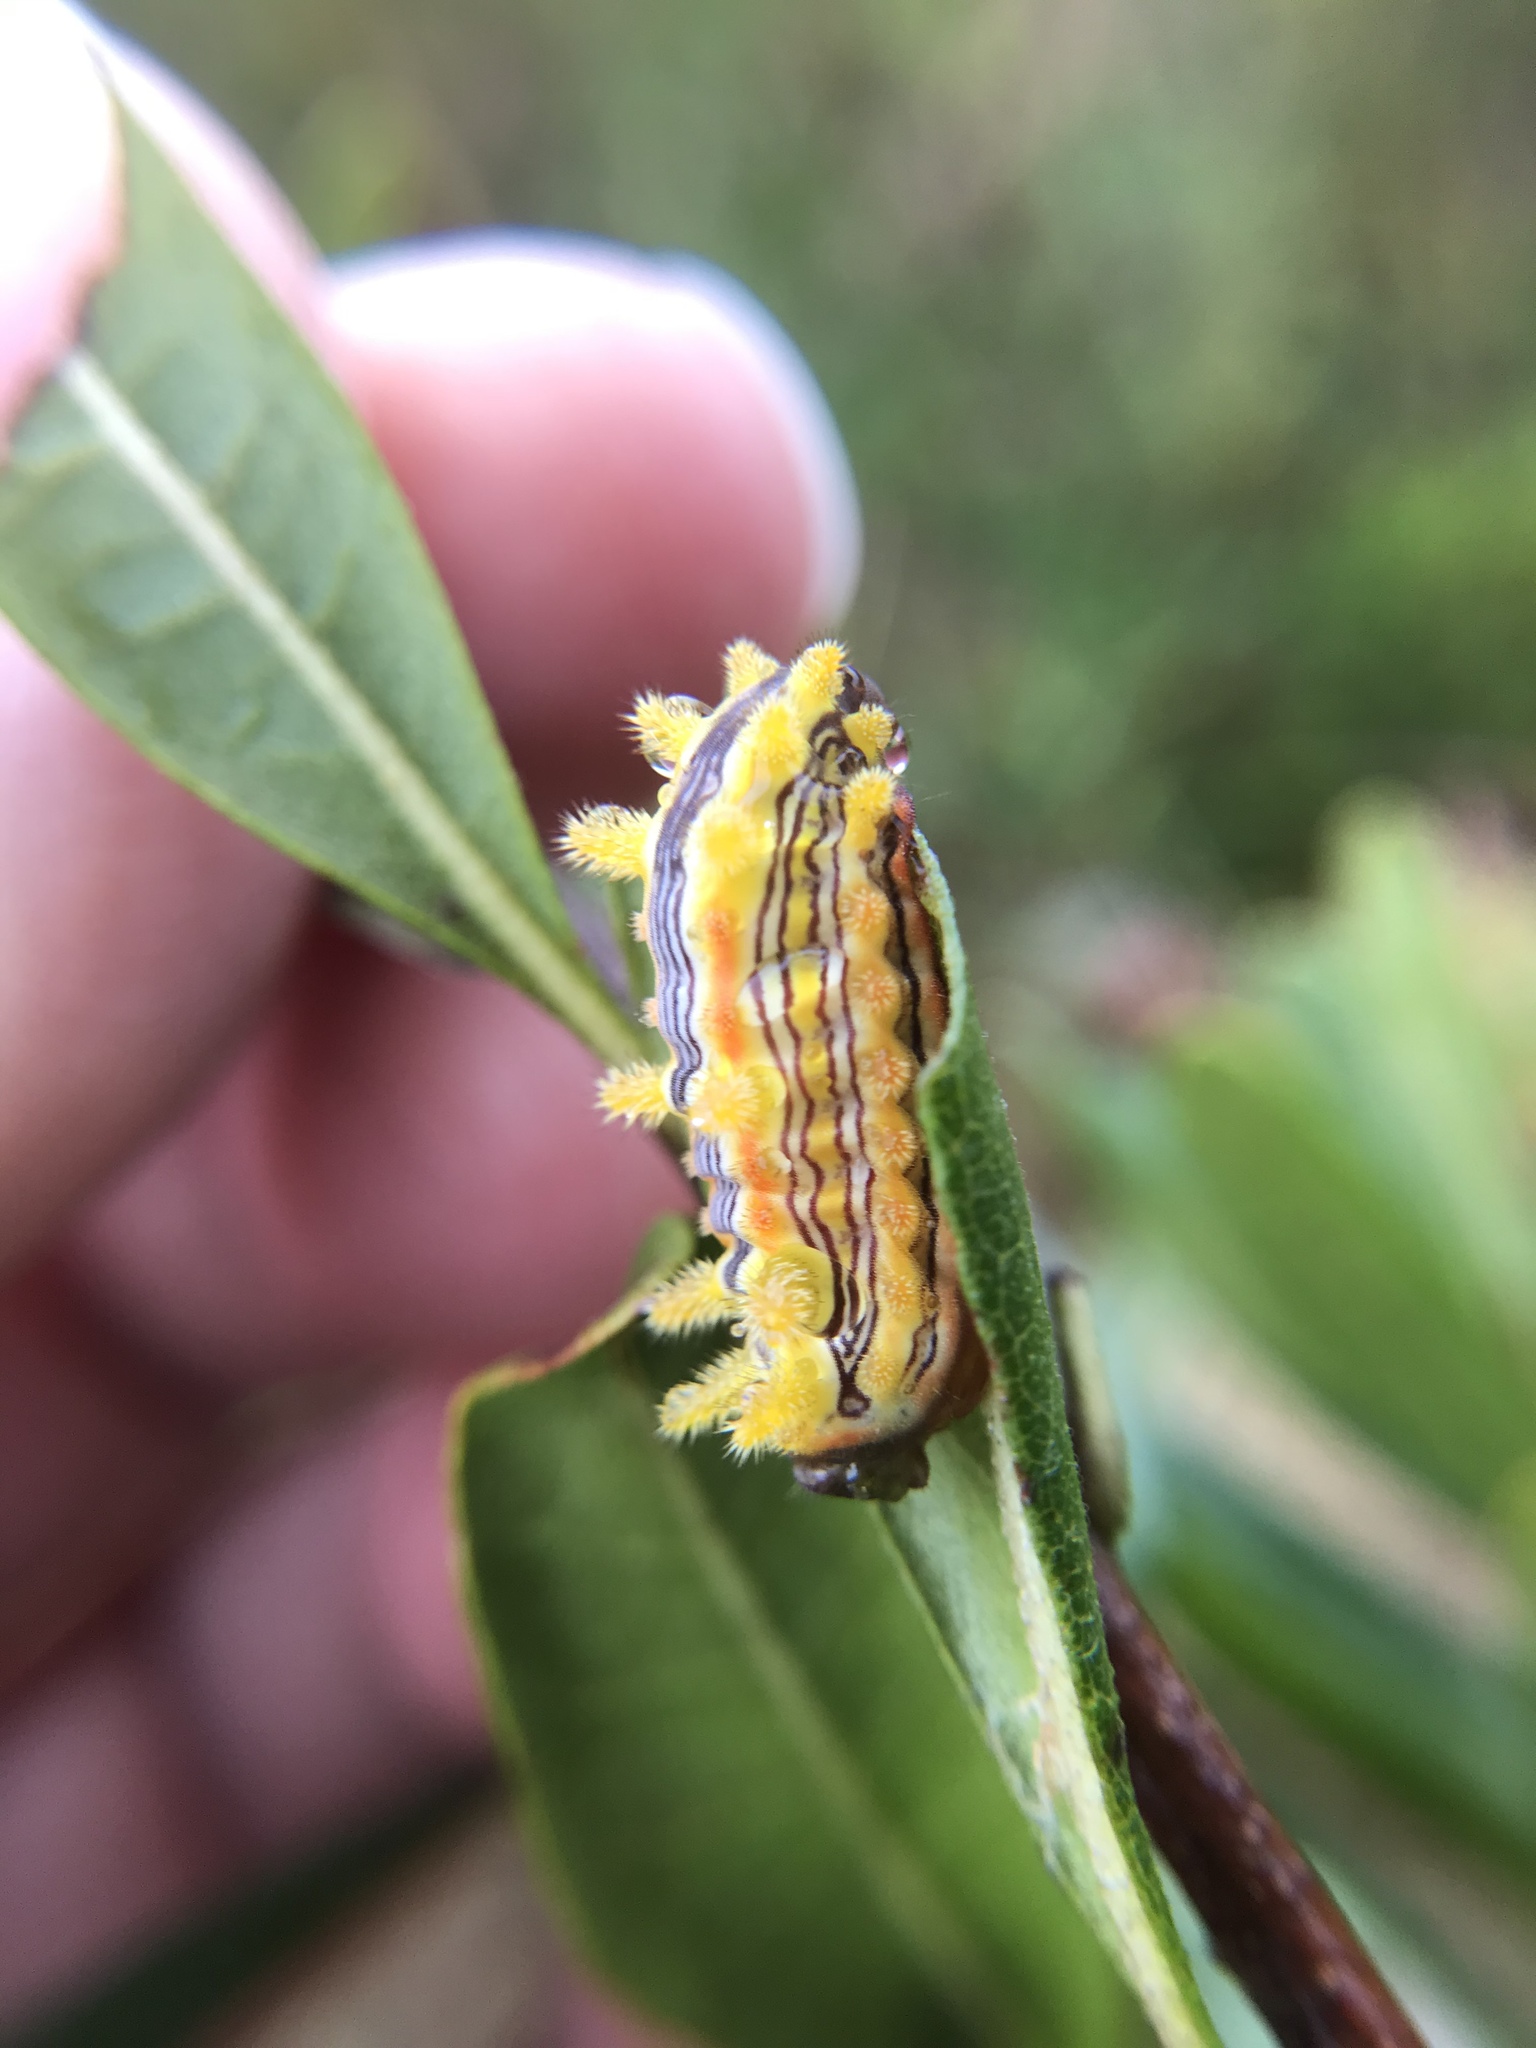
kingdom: Animalia
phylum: Arthropoda
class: Insecta
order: Lepidoptera
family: Limacodidae
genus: Parasa
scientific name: Parasa indetermina
